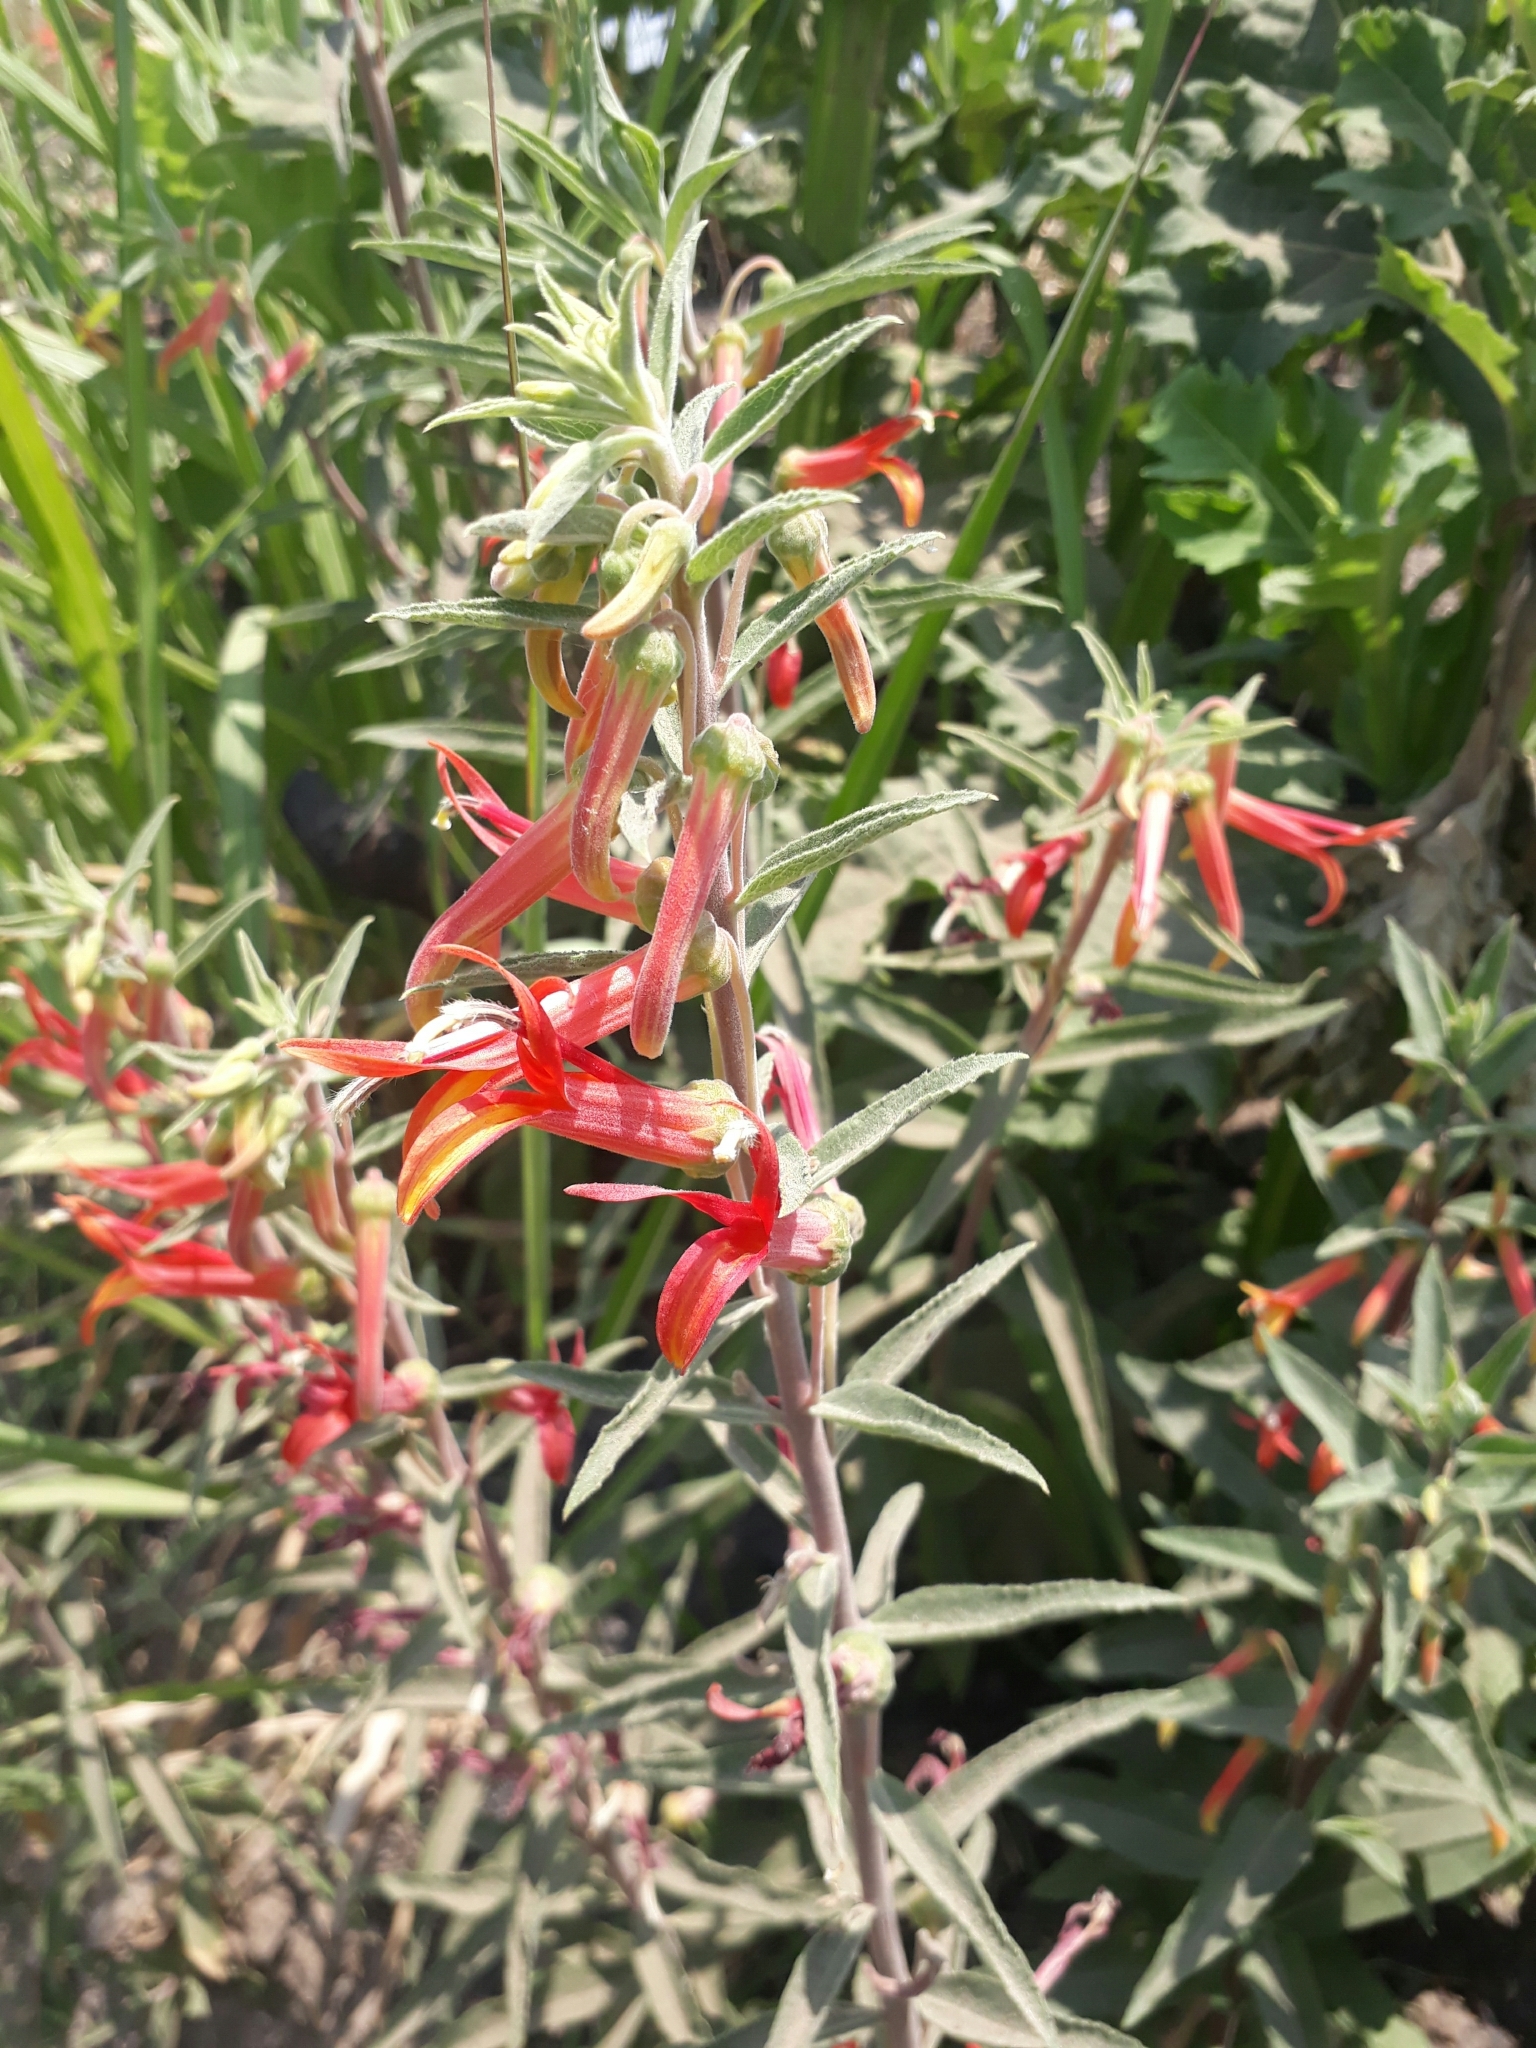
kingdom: Plantae
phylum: Tracheophyta
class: Magnoliopsida
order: Asterales
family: Campanulaceae
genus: Lobelia
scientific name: Lobelia laxiflora
